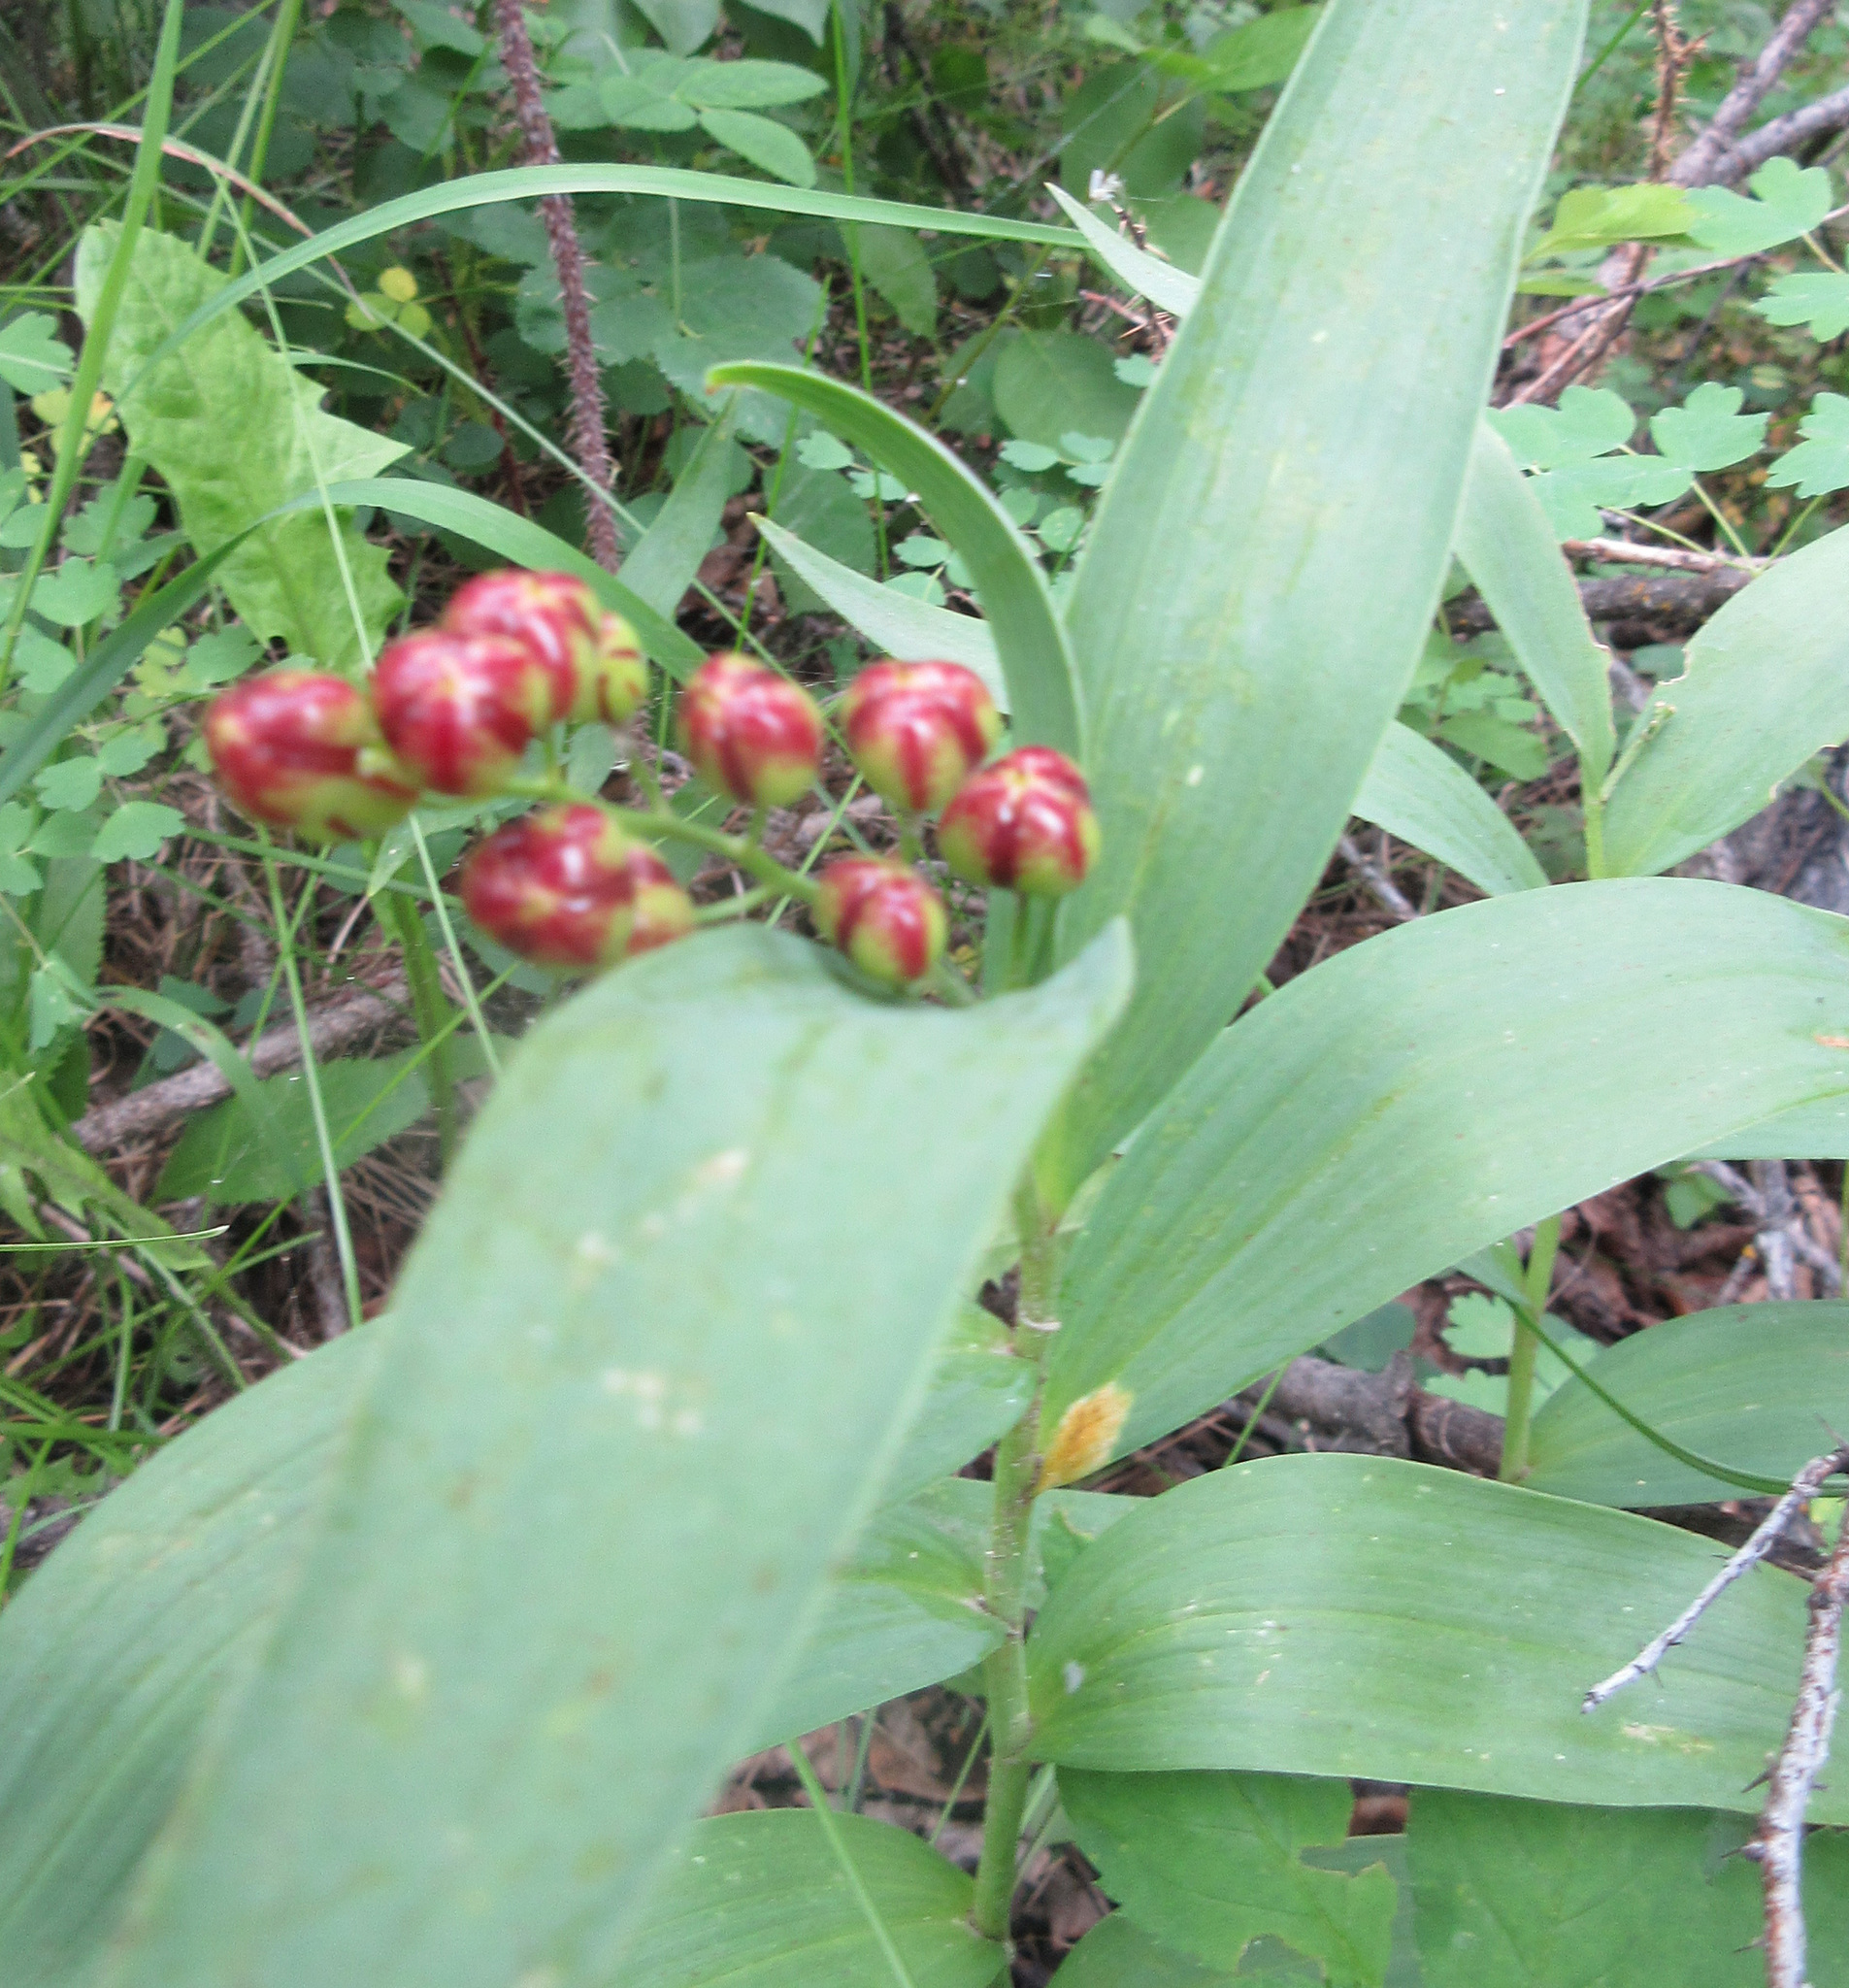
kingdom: Plantae
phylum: Tracheophyta
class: Liliopsida
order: Asparagales
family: Asparagaceae
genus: Maianthemum
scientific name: Maianthemum stellatum
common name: Little false solomon's seal
